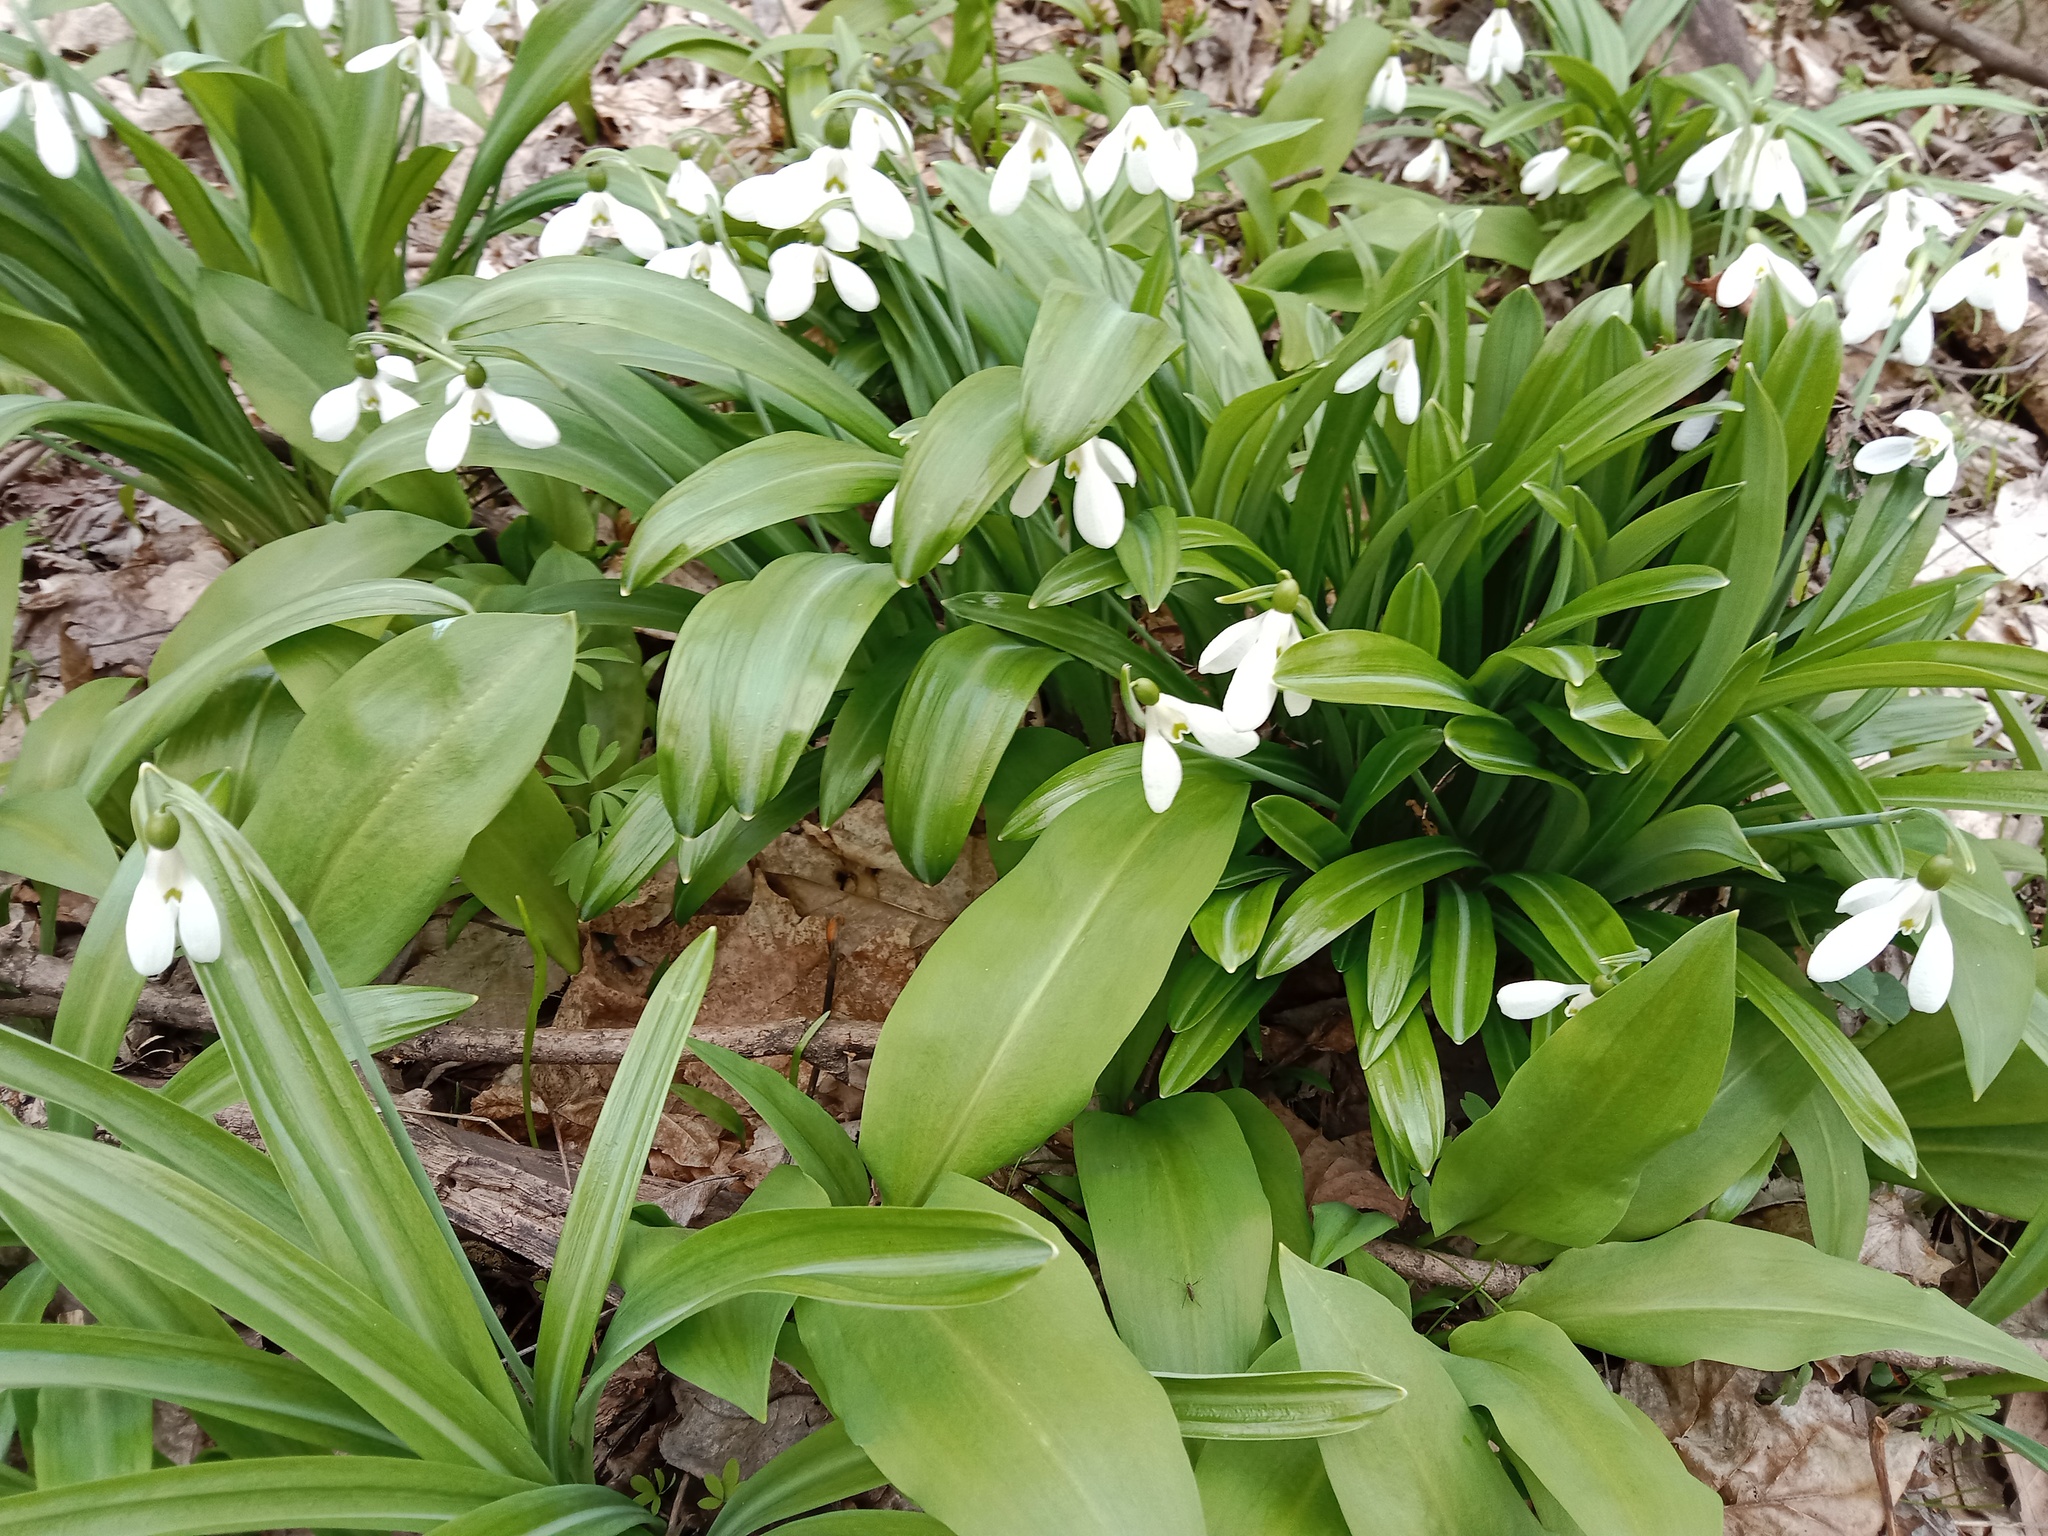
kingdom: Plantae
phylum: Tracheophyta
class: Liliopsida
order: Asparagales
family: Amaryllidaceae
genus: Galanthus
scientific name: Galanthus plicatus
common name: Pleated snowdrop
